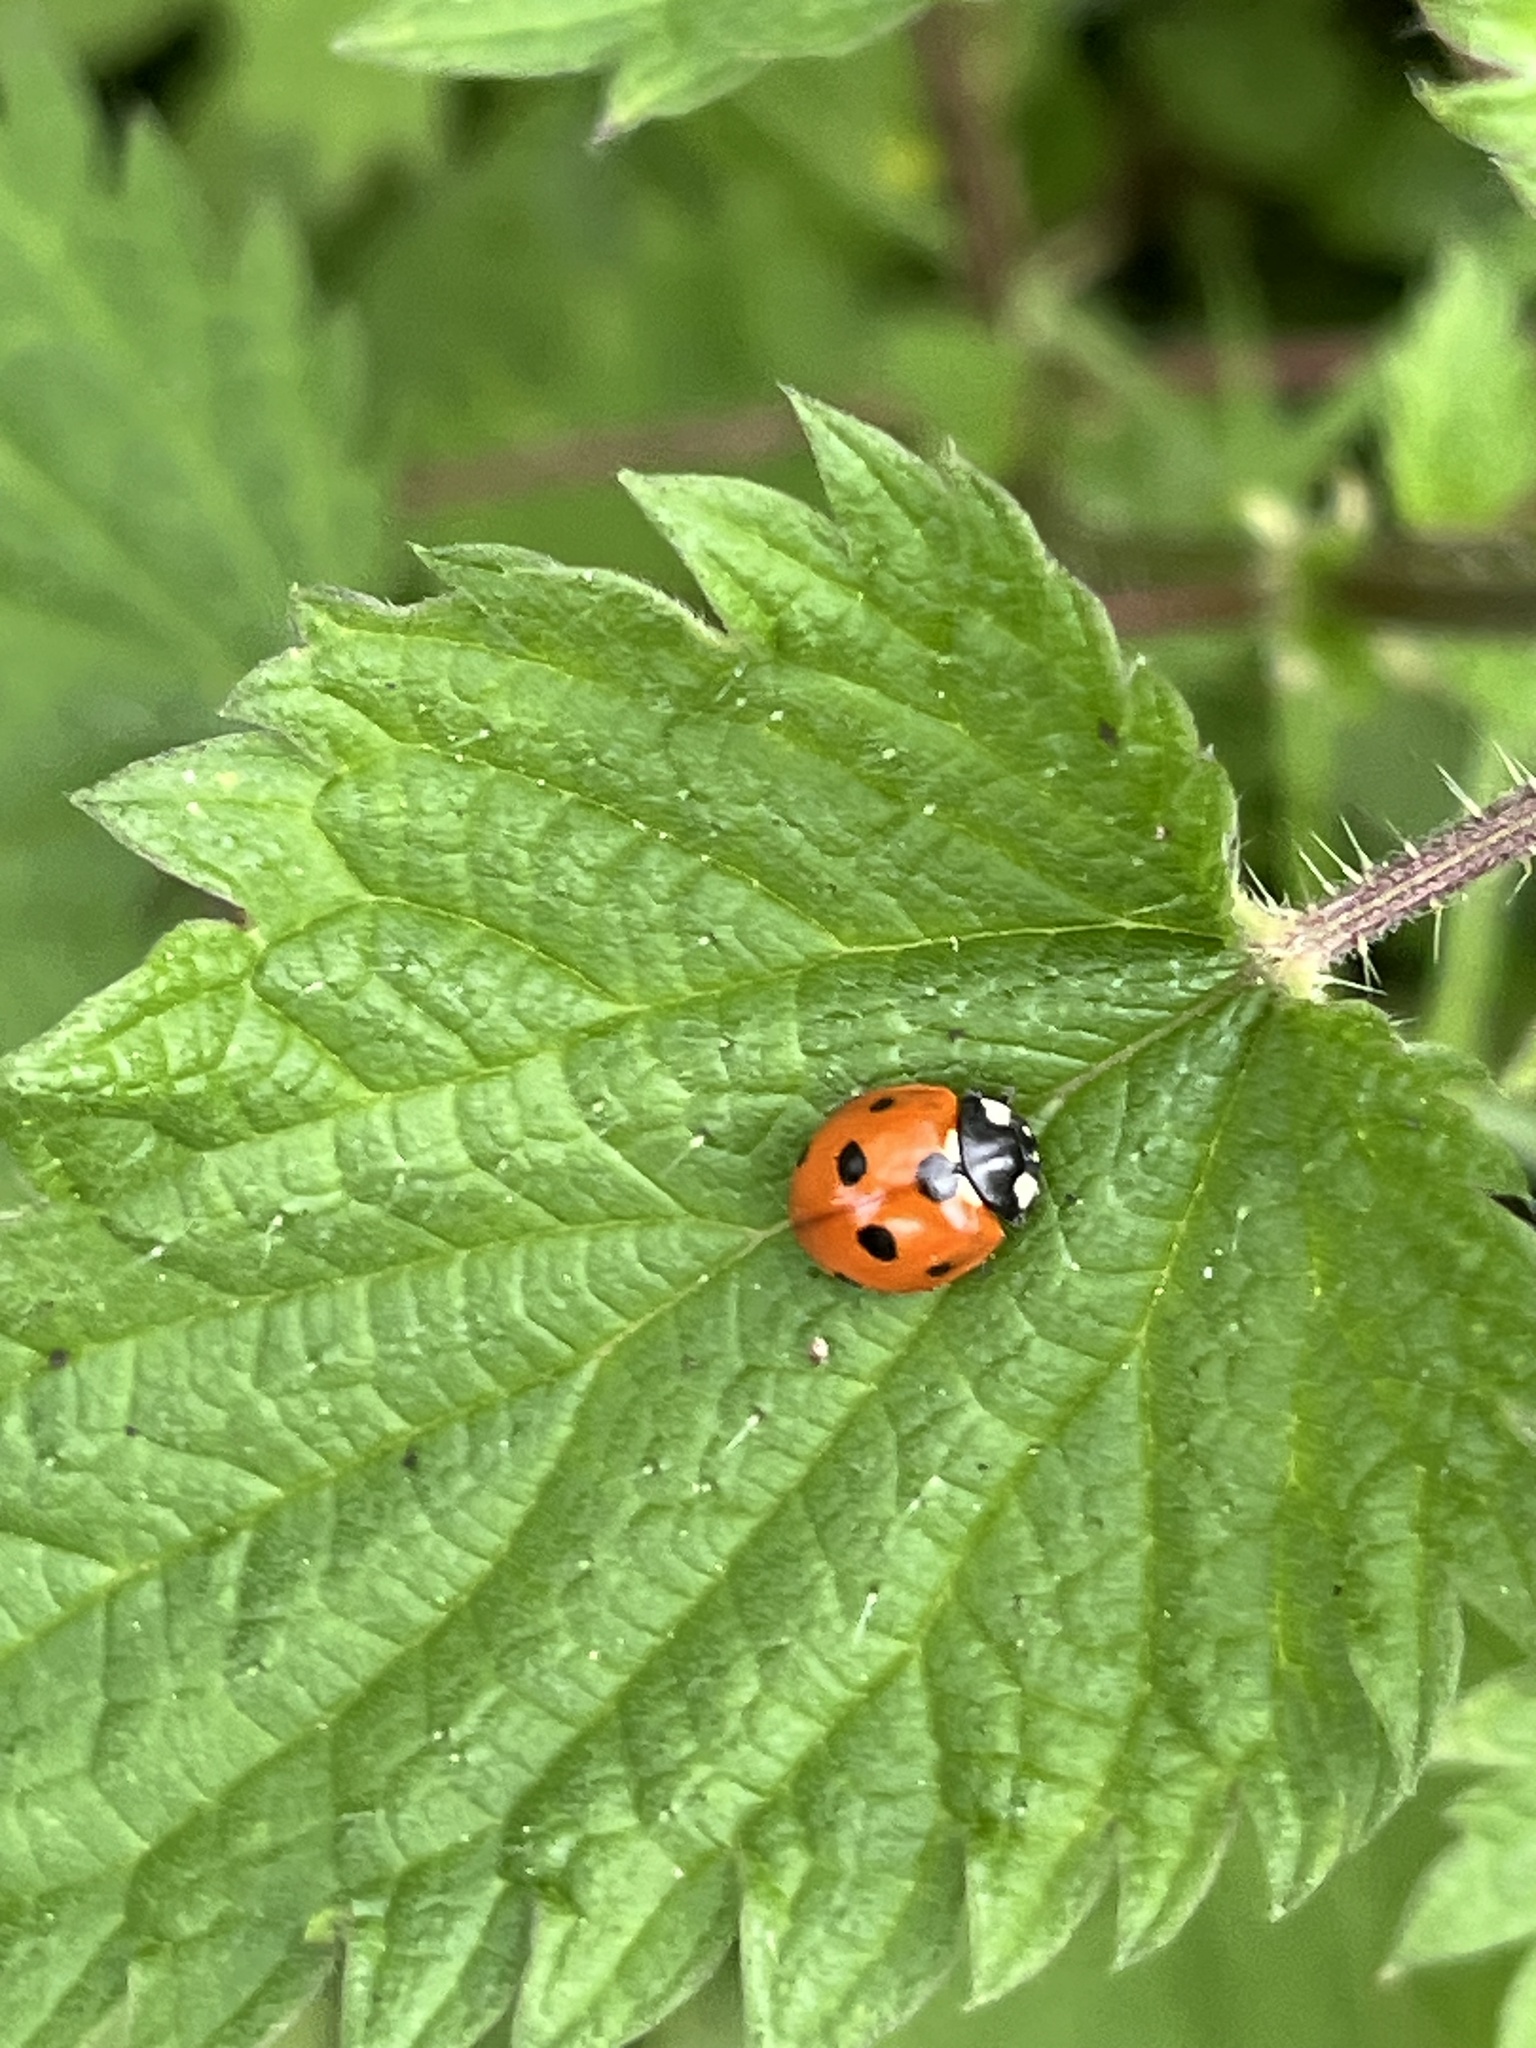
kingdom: Animalia
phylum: Arthropoda
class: Insecta
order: Coleoptera
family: Coccinellidae
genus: Coccinella
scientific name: Coccinella septempunctata
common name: Sevenspotted lady beetle
